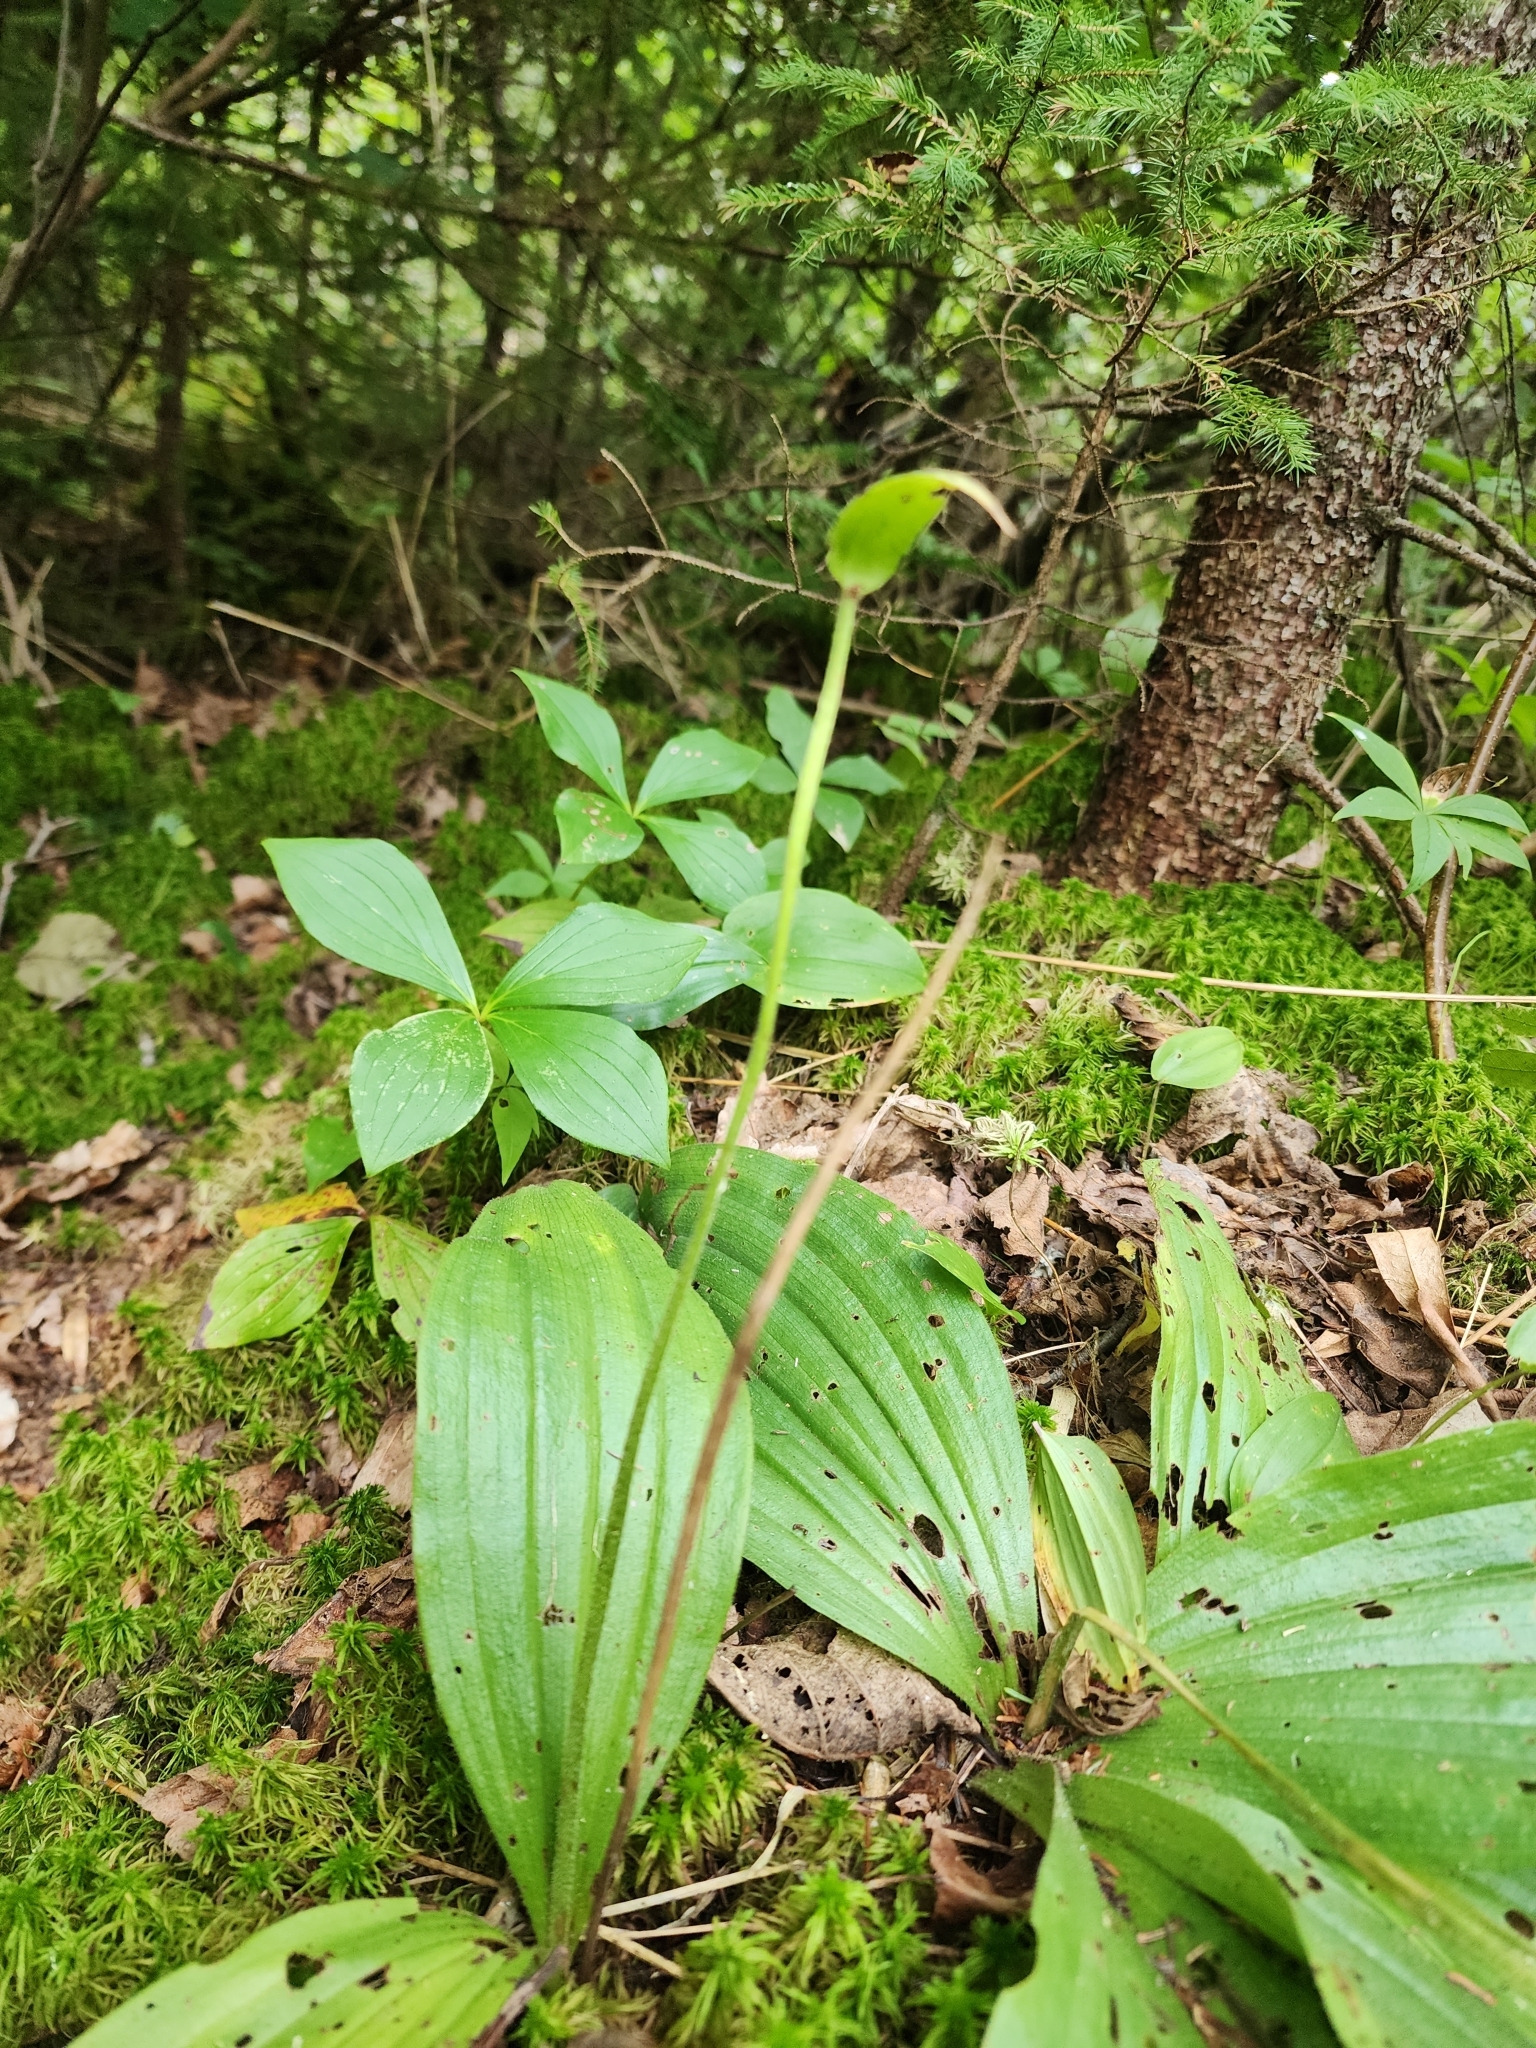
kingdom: Plantae
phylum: Tracheophyta
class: Liliopsida
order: Asparagales
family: Orchidaceae
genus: Cypripedium
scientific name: Cypripedium acaule
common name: Pink lady's-slipper
